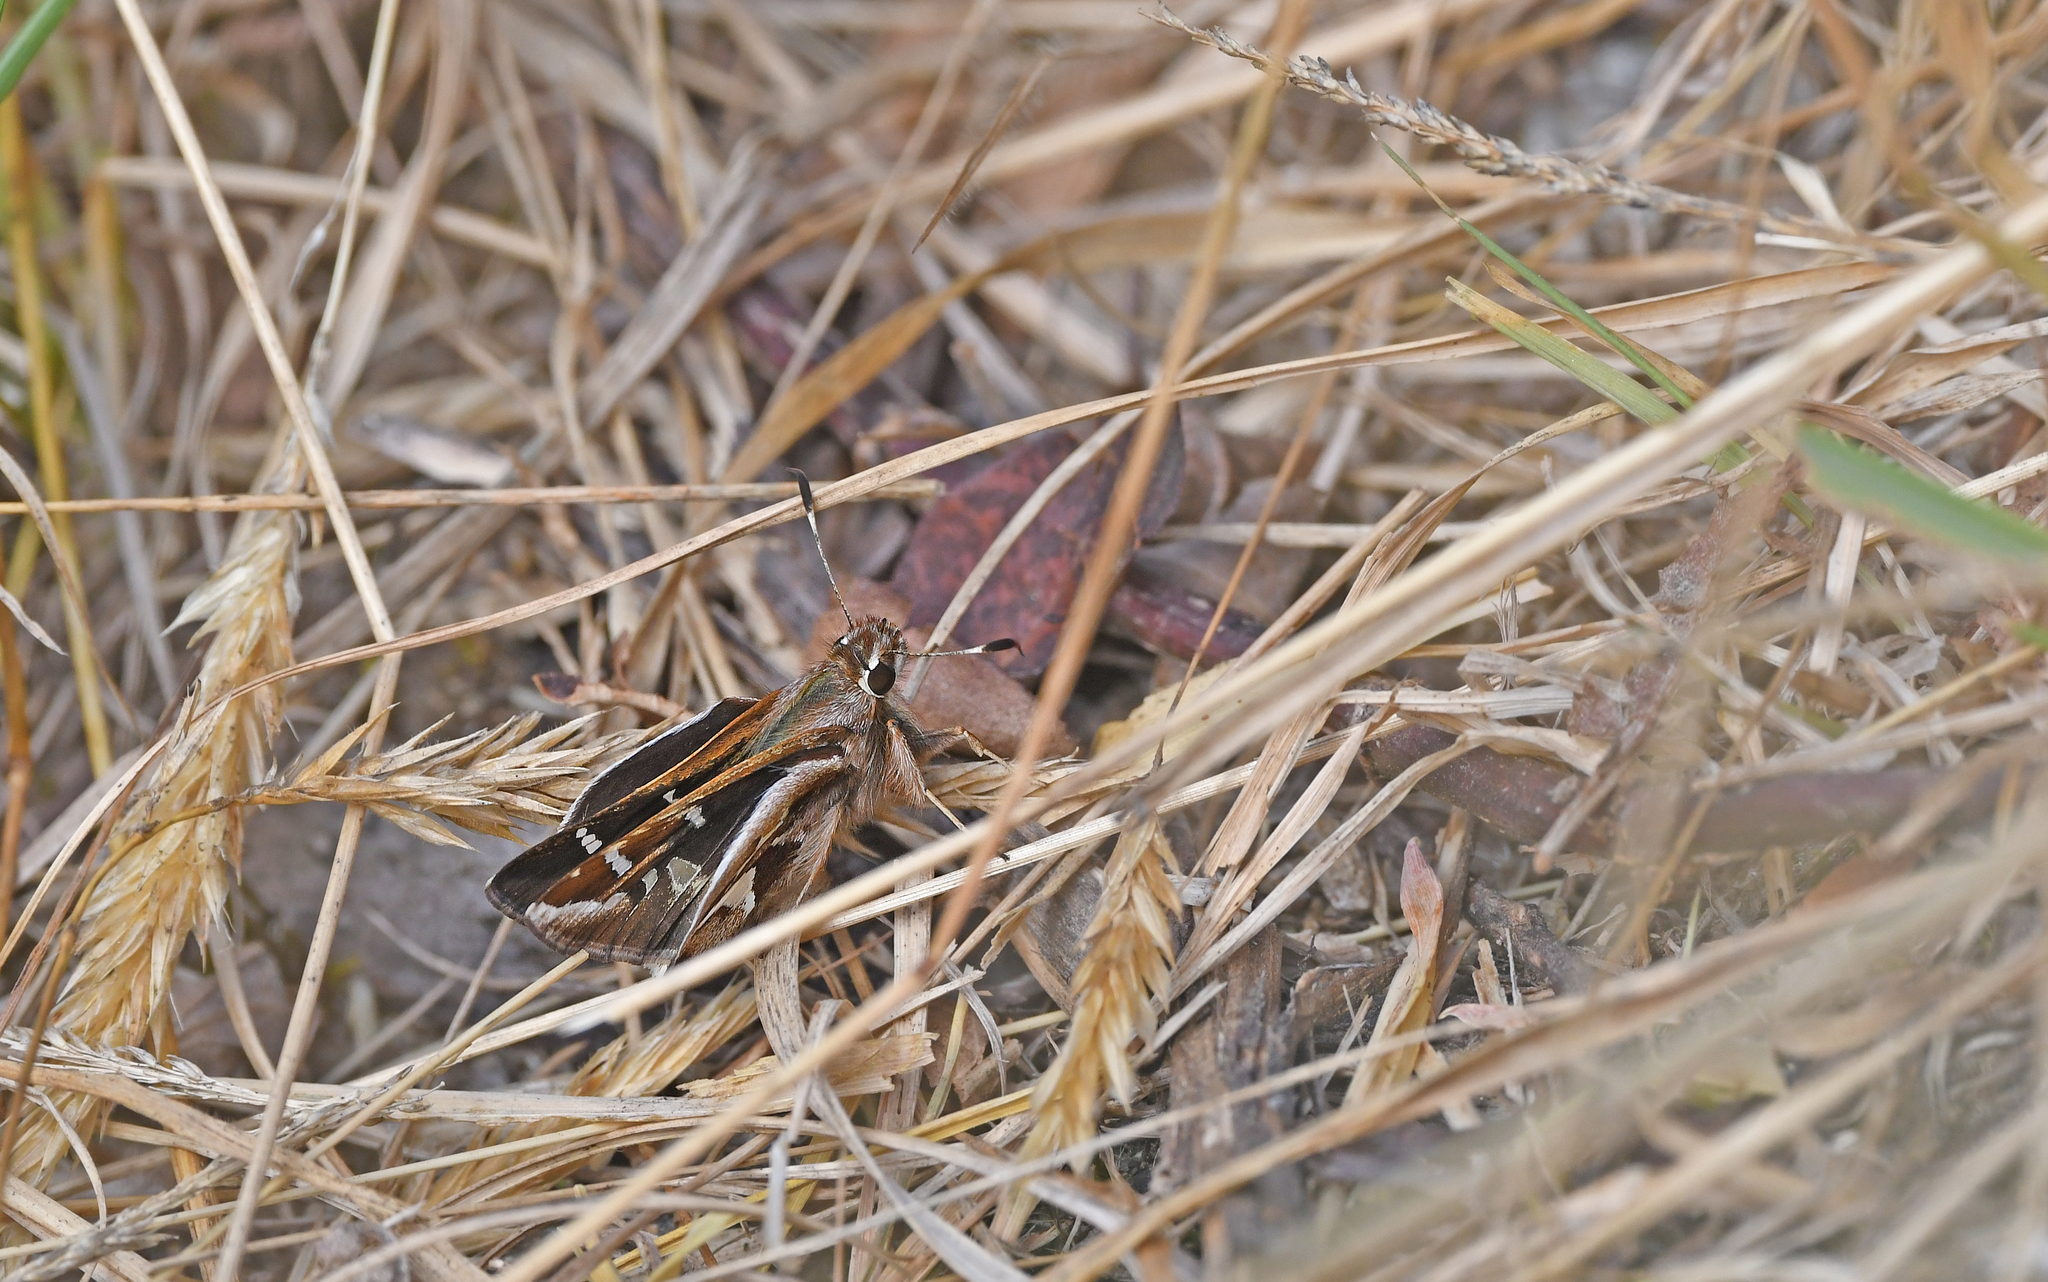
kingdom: Animalia
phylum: Arthropoda
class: Insecta
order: Lepidoptera
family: Hesperiidae
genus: Thespieus
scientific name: Thespieus othna
